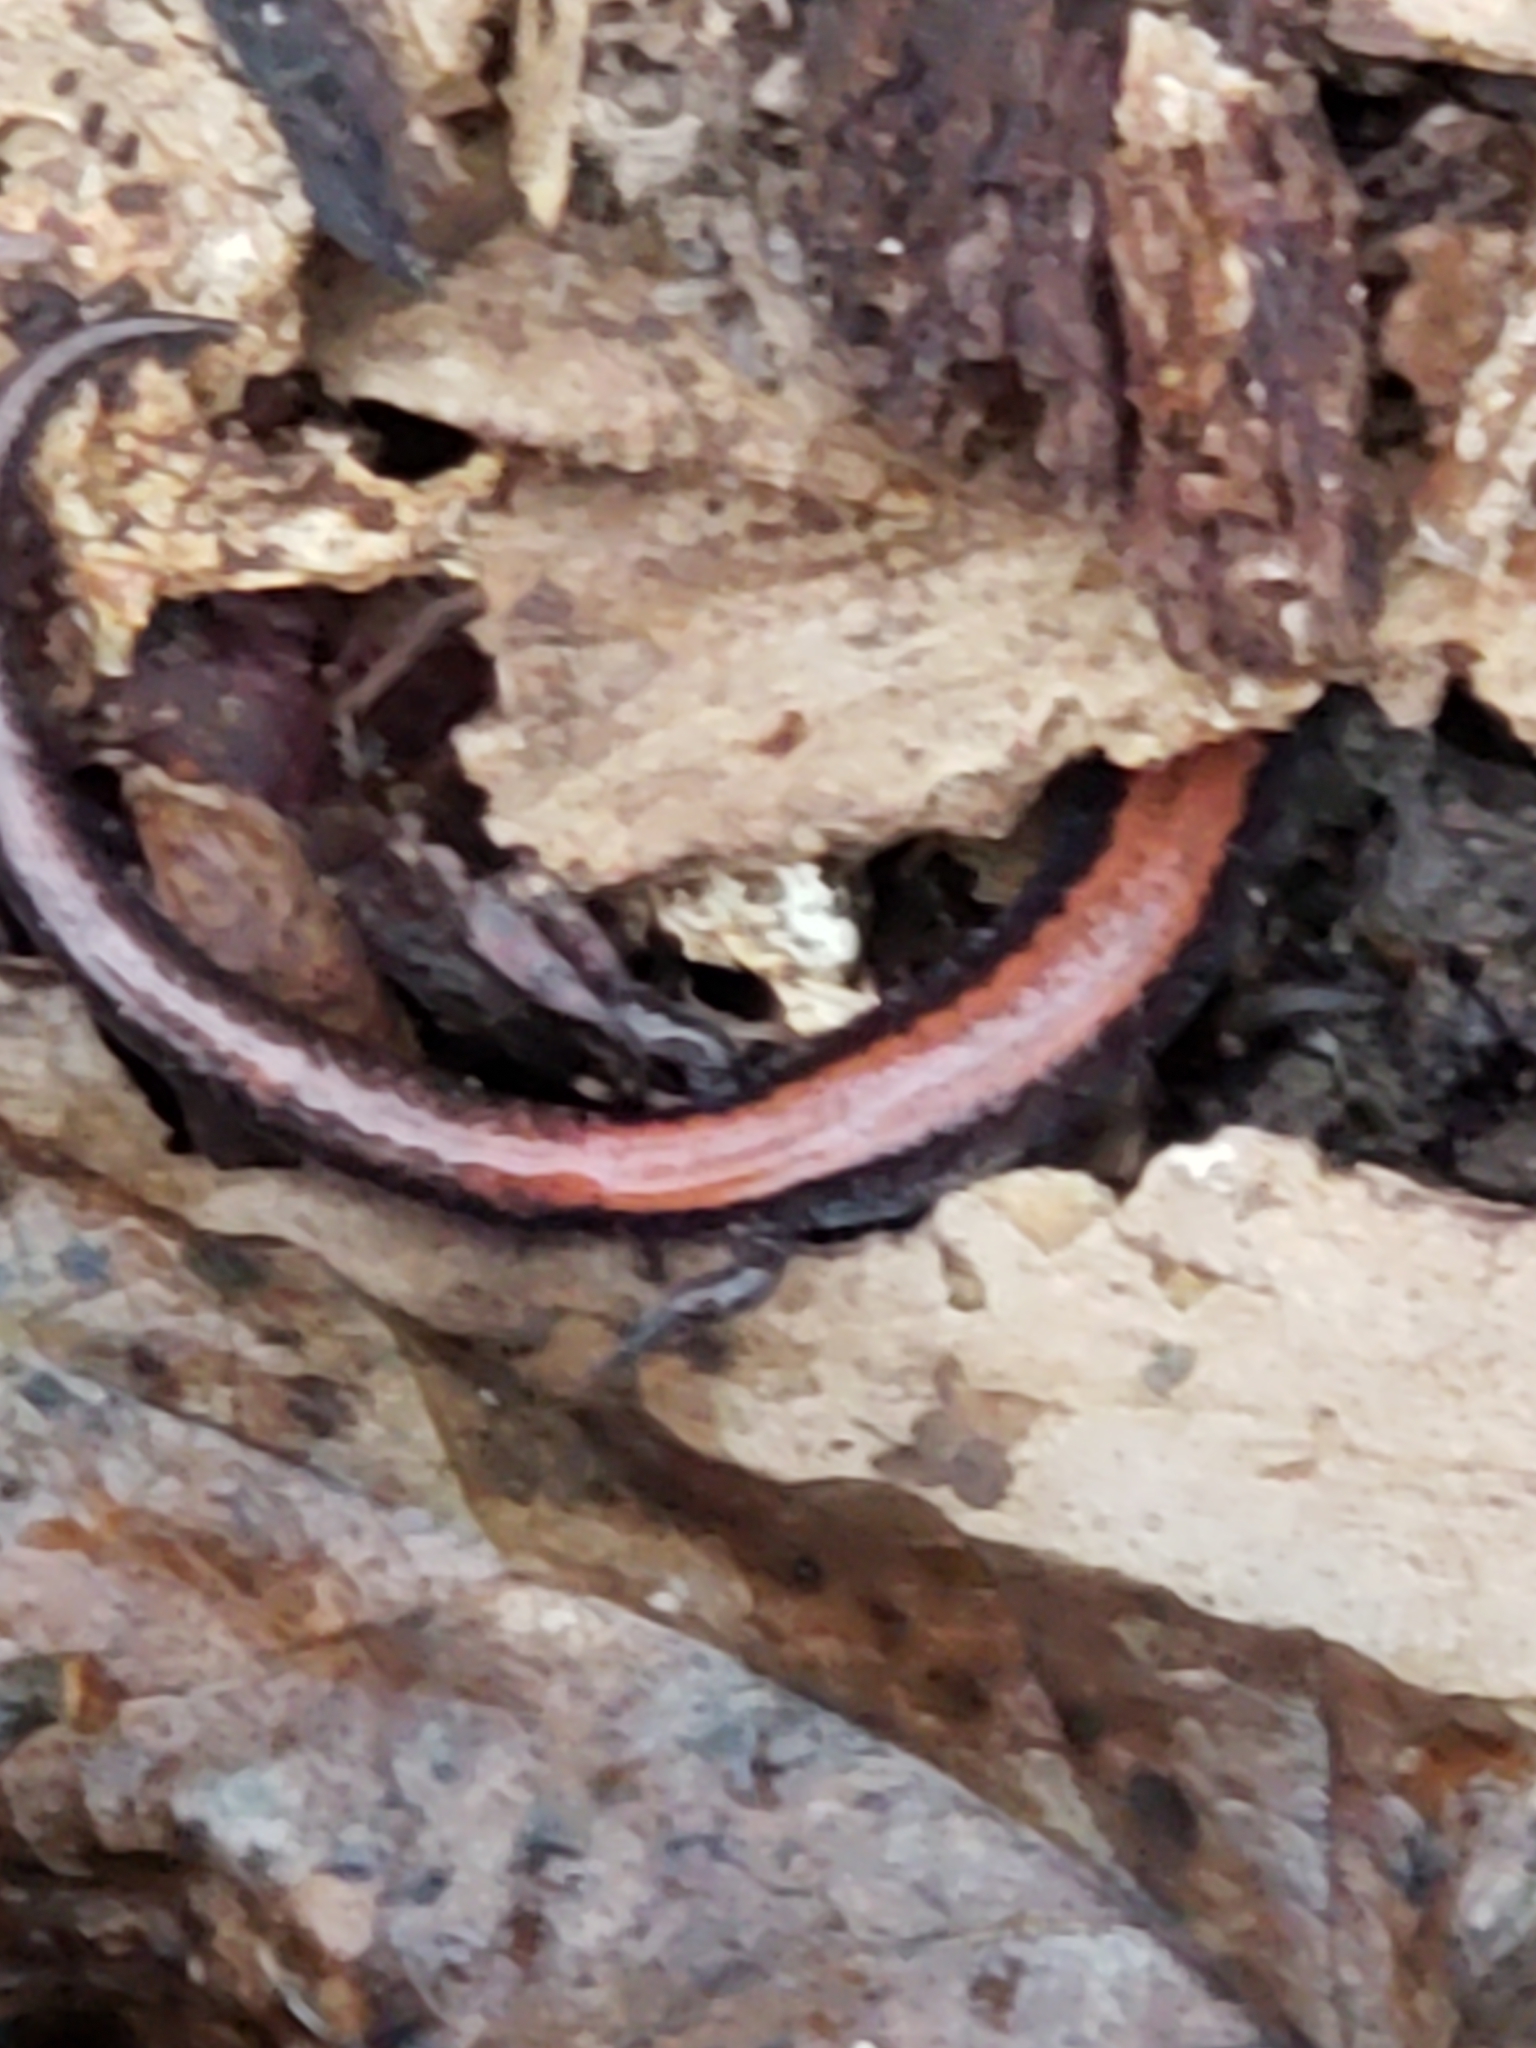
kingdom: Animalia
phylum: Chordata
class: Amphibia
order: Caudata
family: Plethodontidae
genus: Plethodon
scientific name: Plethodon cinereus
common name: Redback salamander
